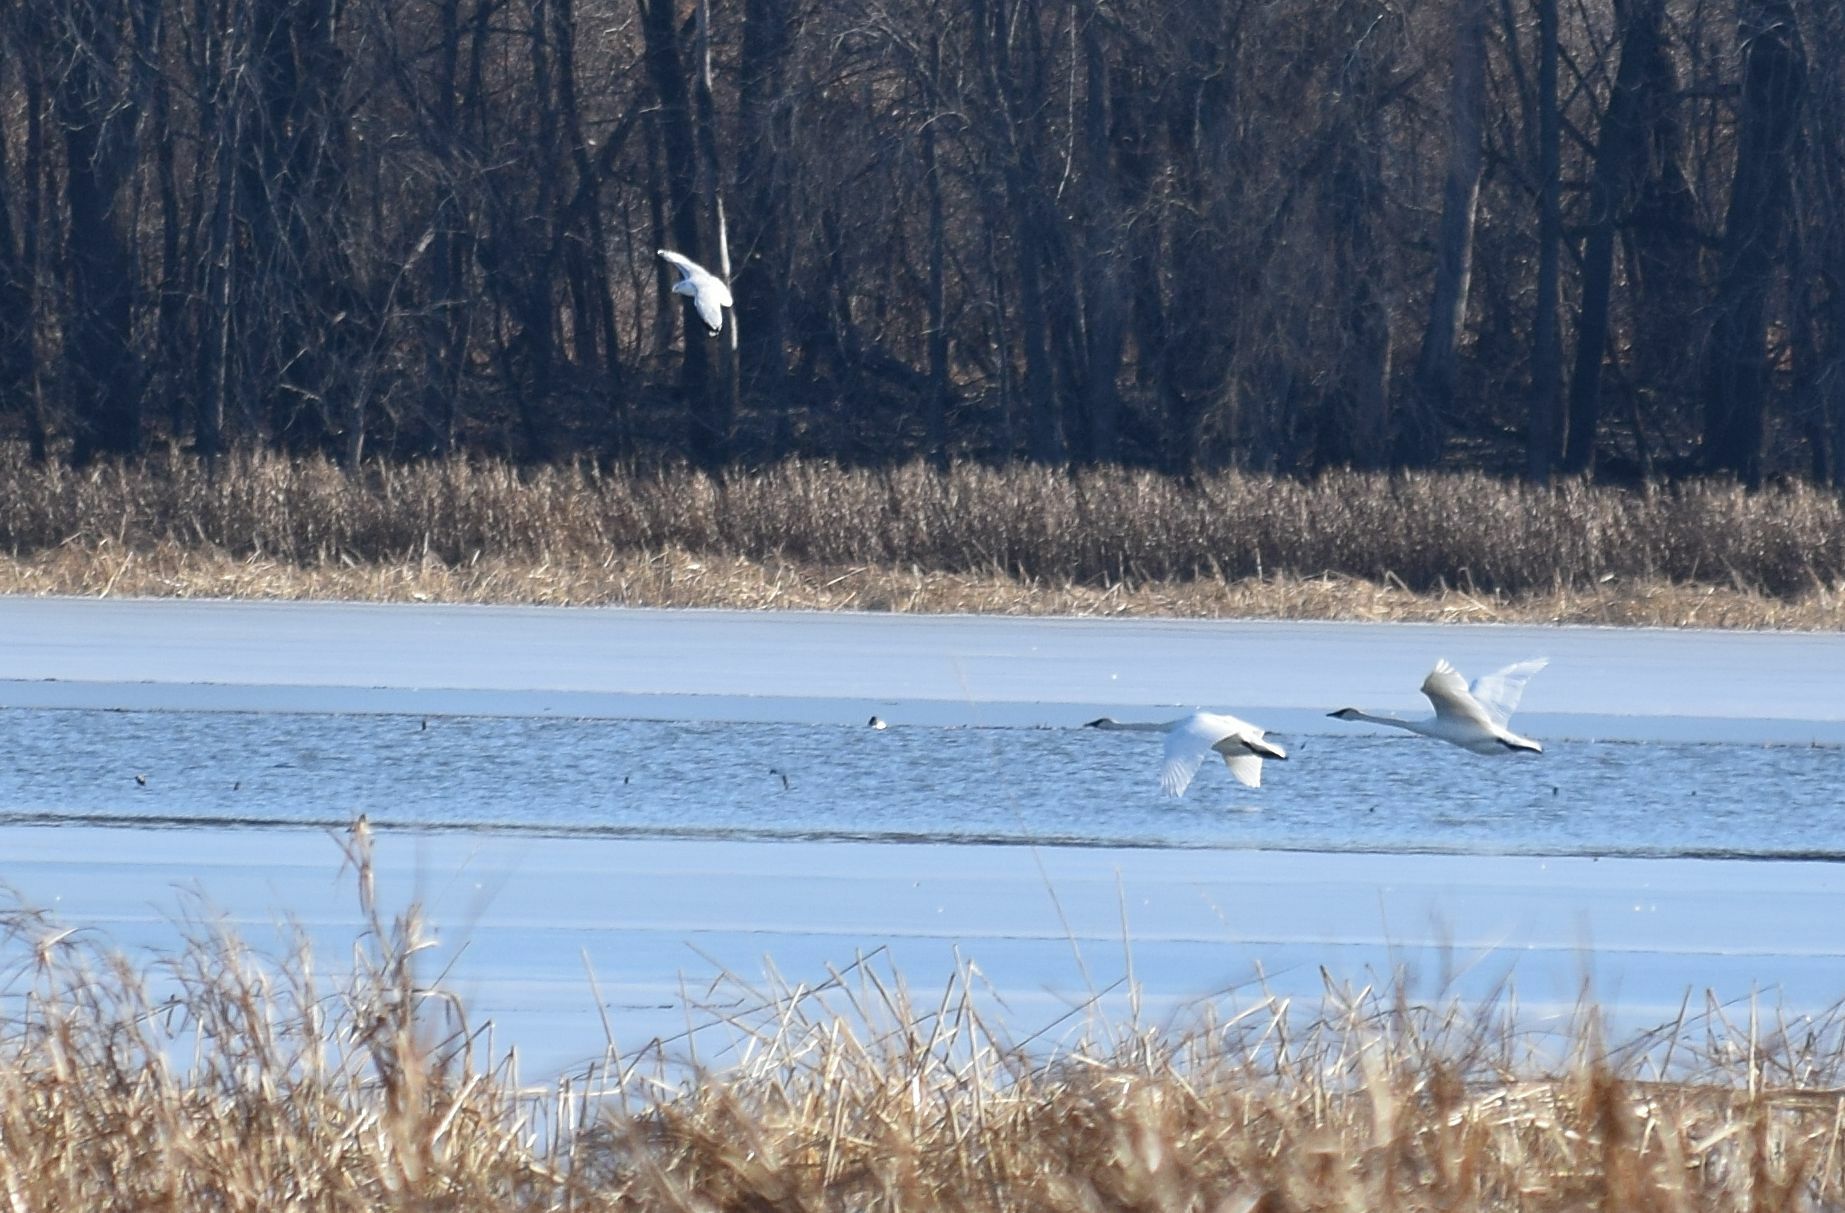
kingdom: Animalia
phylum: Chordata
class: Aves
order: Anseriformes
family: Anatidae
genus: Cygnus
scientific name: Cygnus buccinator
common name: Trumpeter swan
